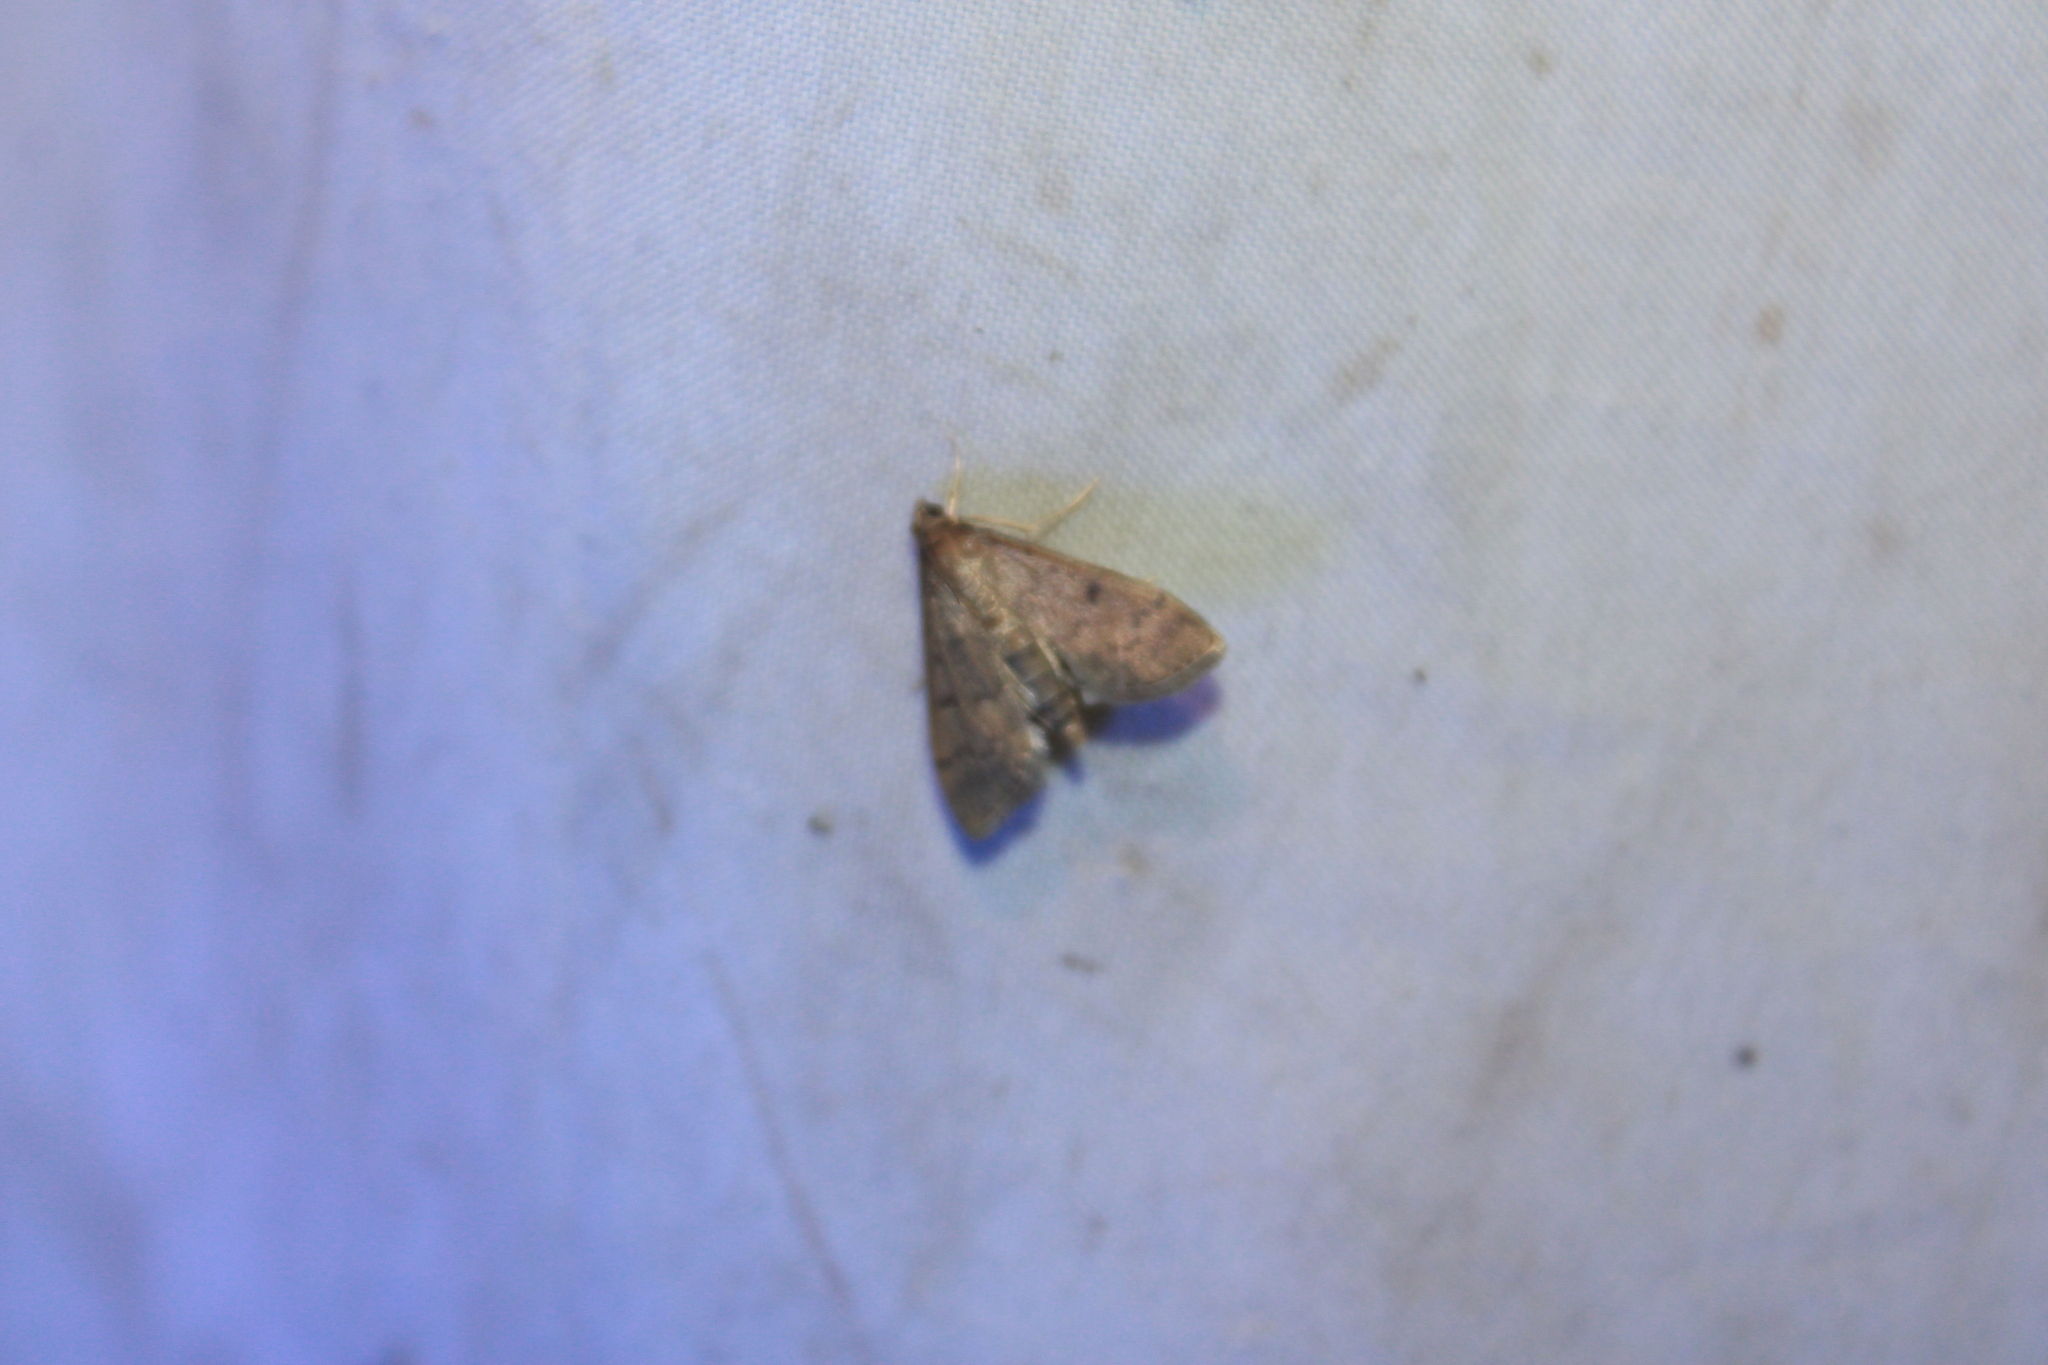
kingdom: Animalia
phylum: Arthropoda
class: Insecta
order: Lepidoptera
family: Crambidae
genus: Herpetogramma
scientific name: Herpetogramma phaeopteralis
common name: Dusky herpetogramma moth
